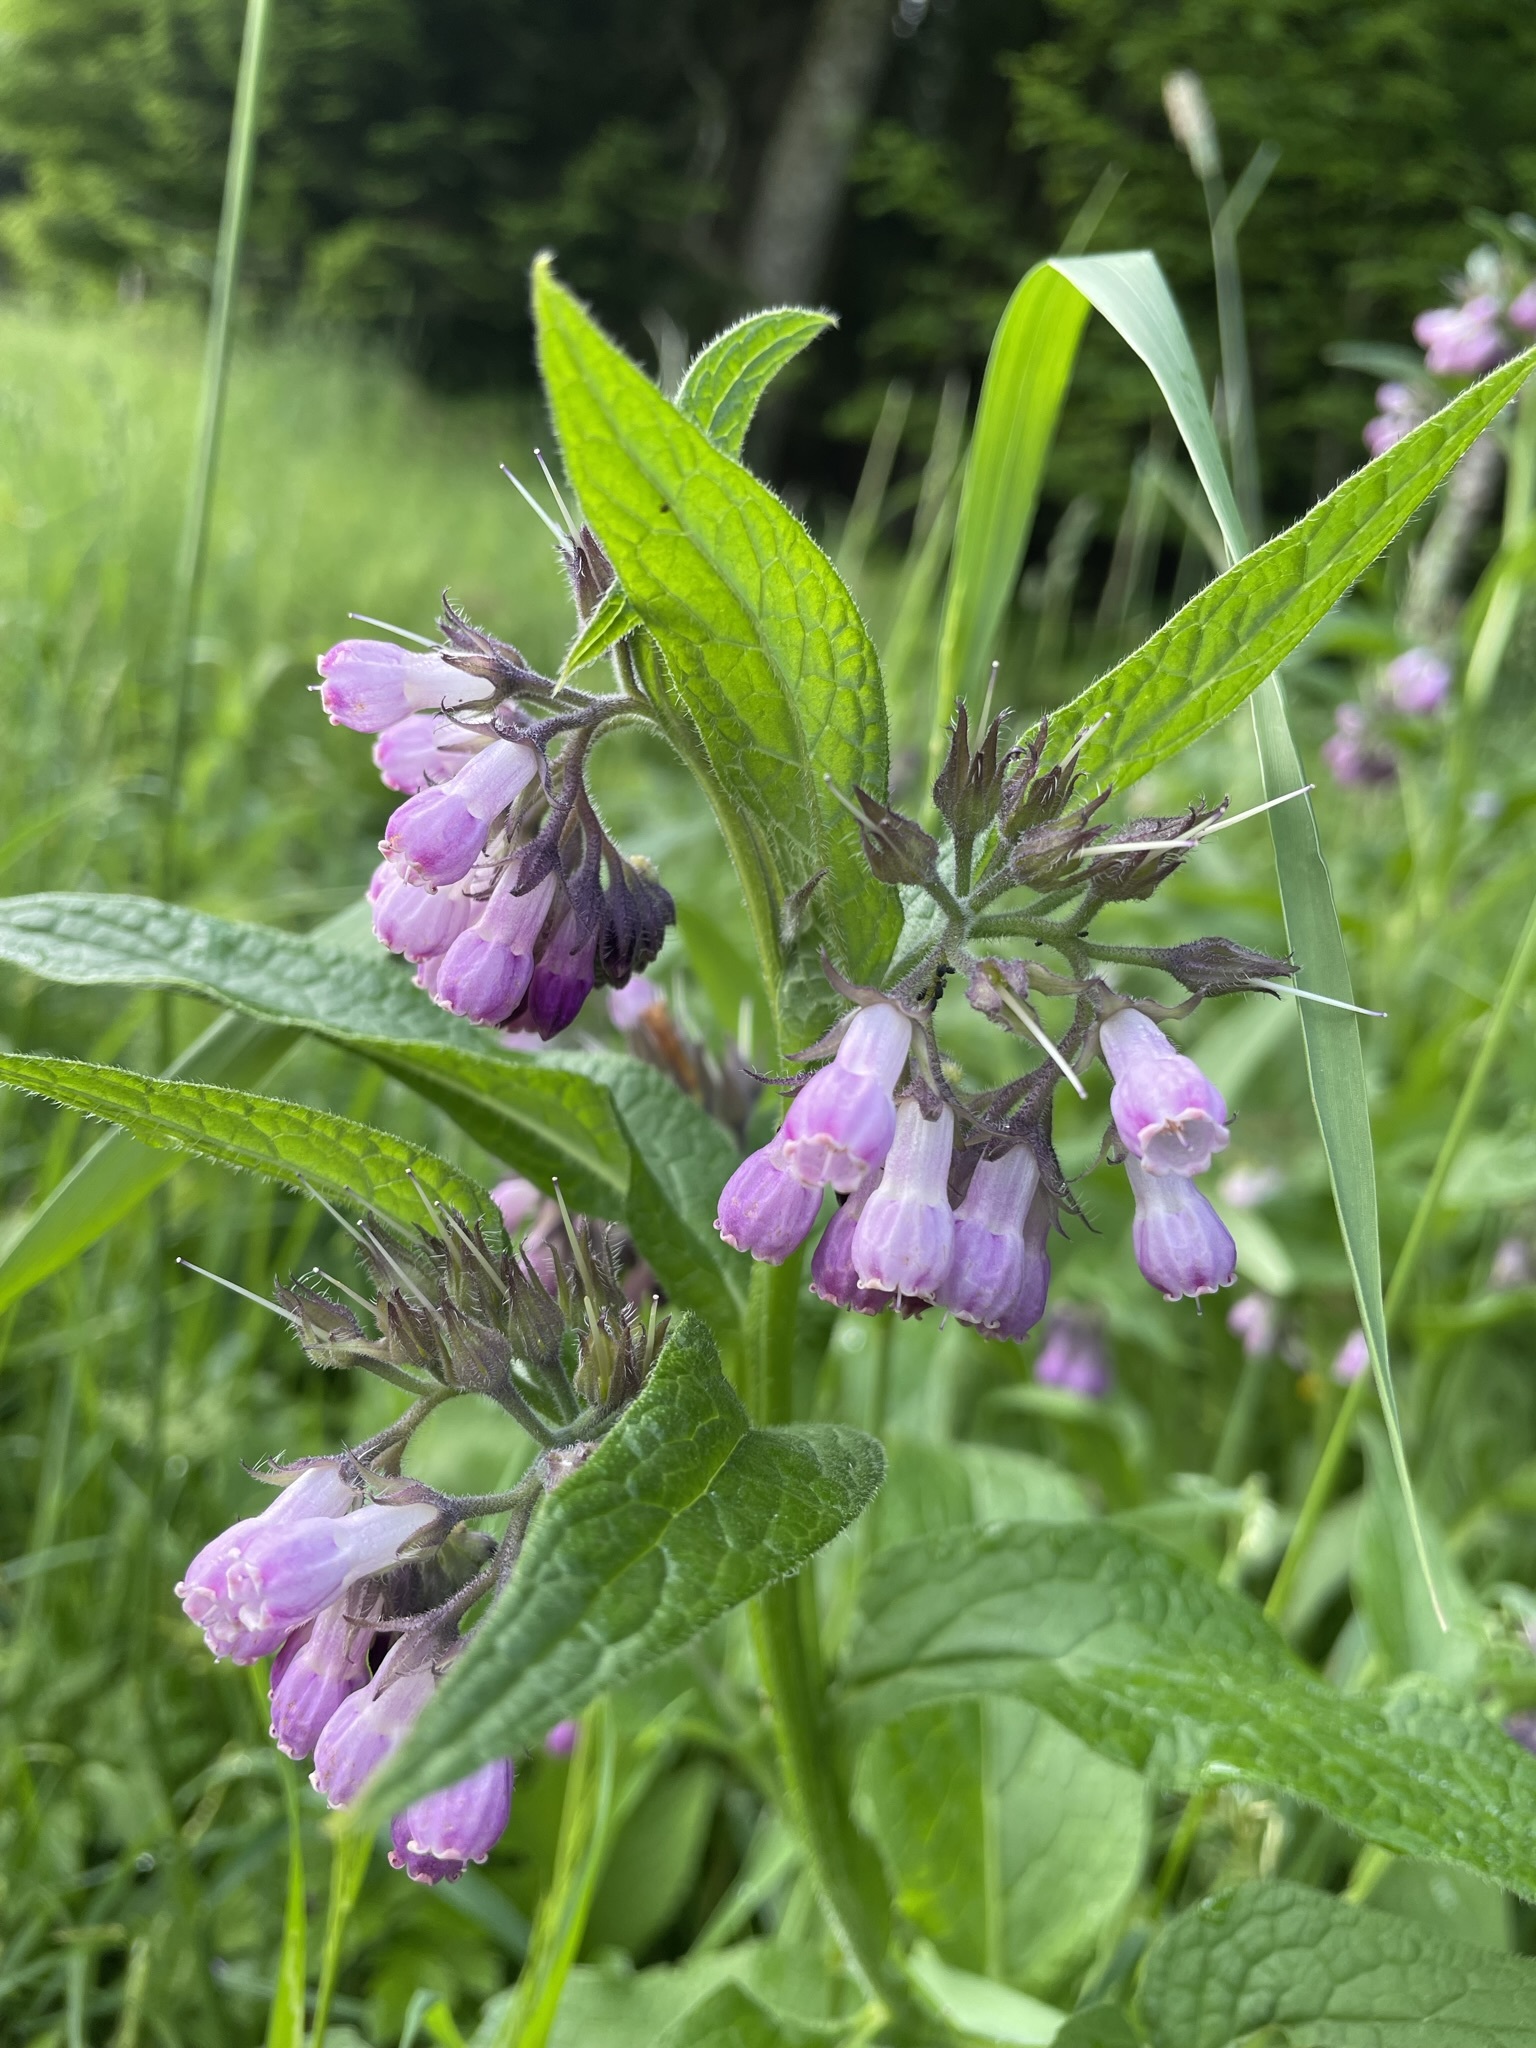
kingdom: Plantae
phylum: Tracheophyta
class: Magnoliopsida
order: Boraginales
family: Boraginaceae
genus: Symphytum
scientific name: Symphytum officinale
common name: Common comfrey
